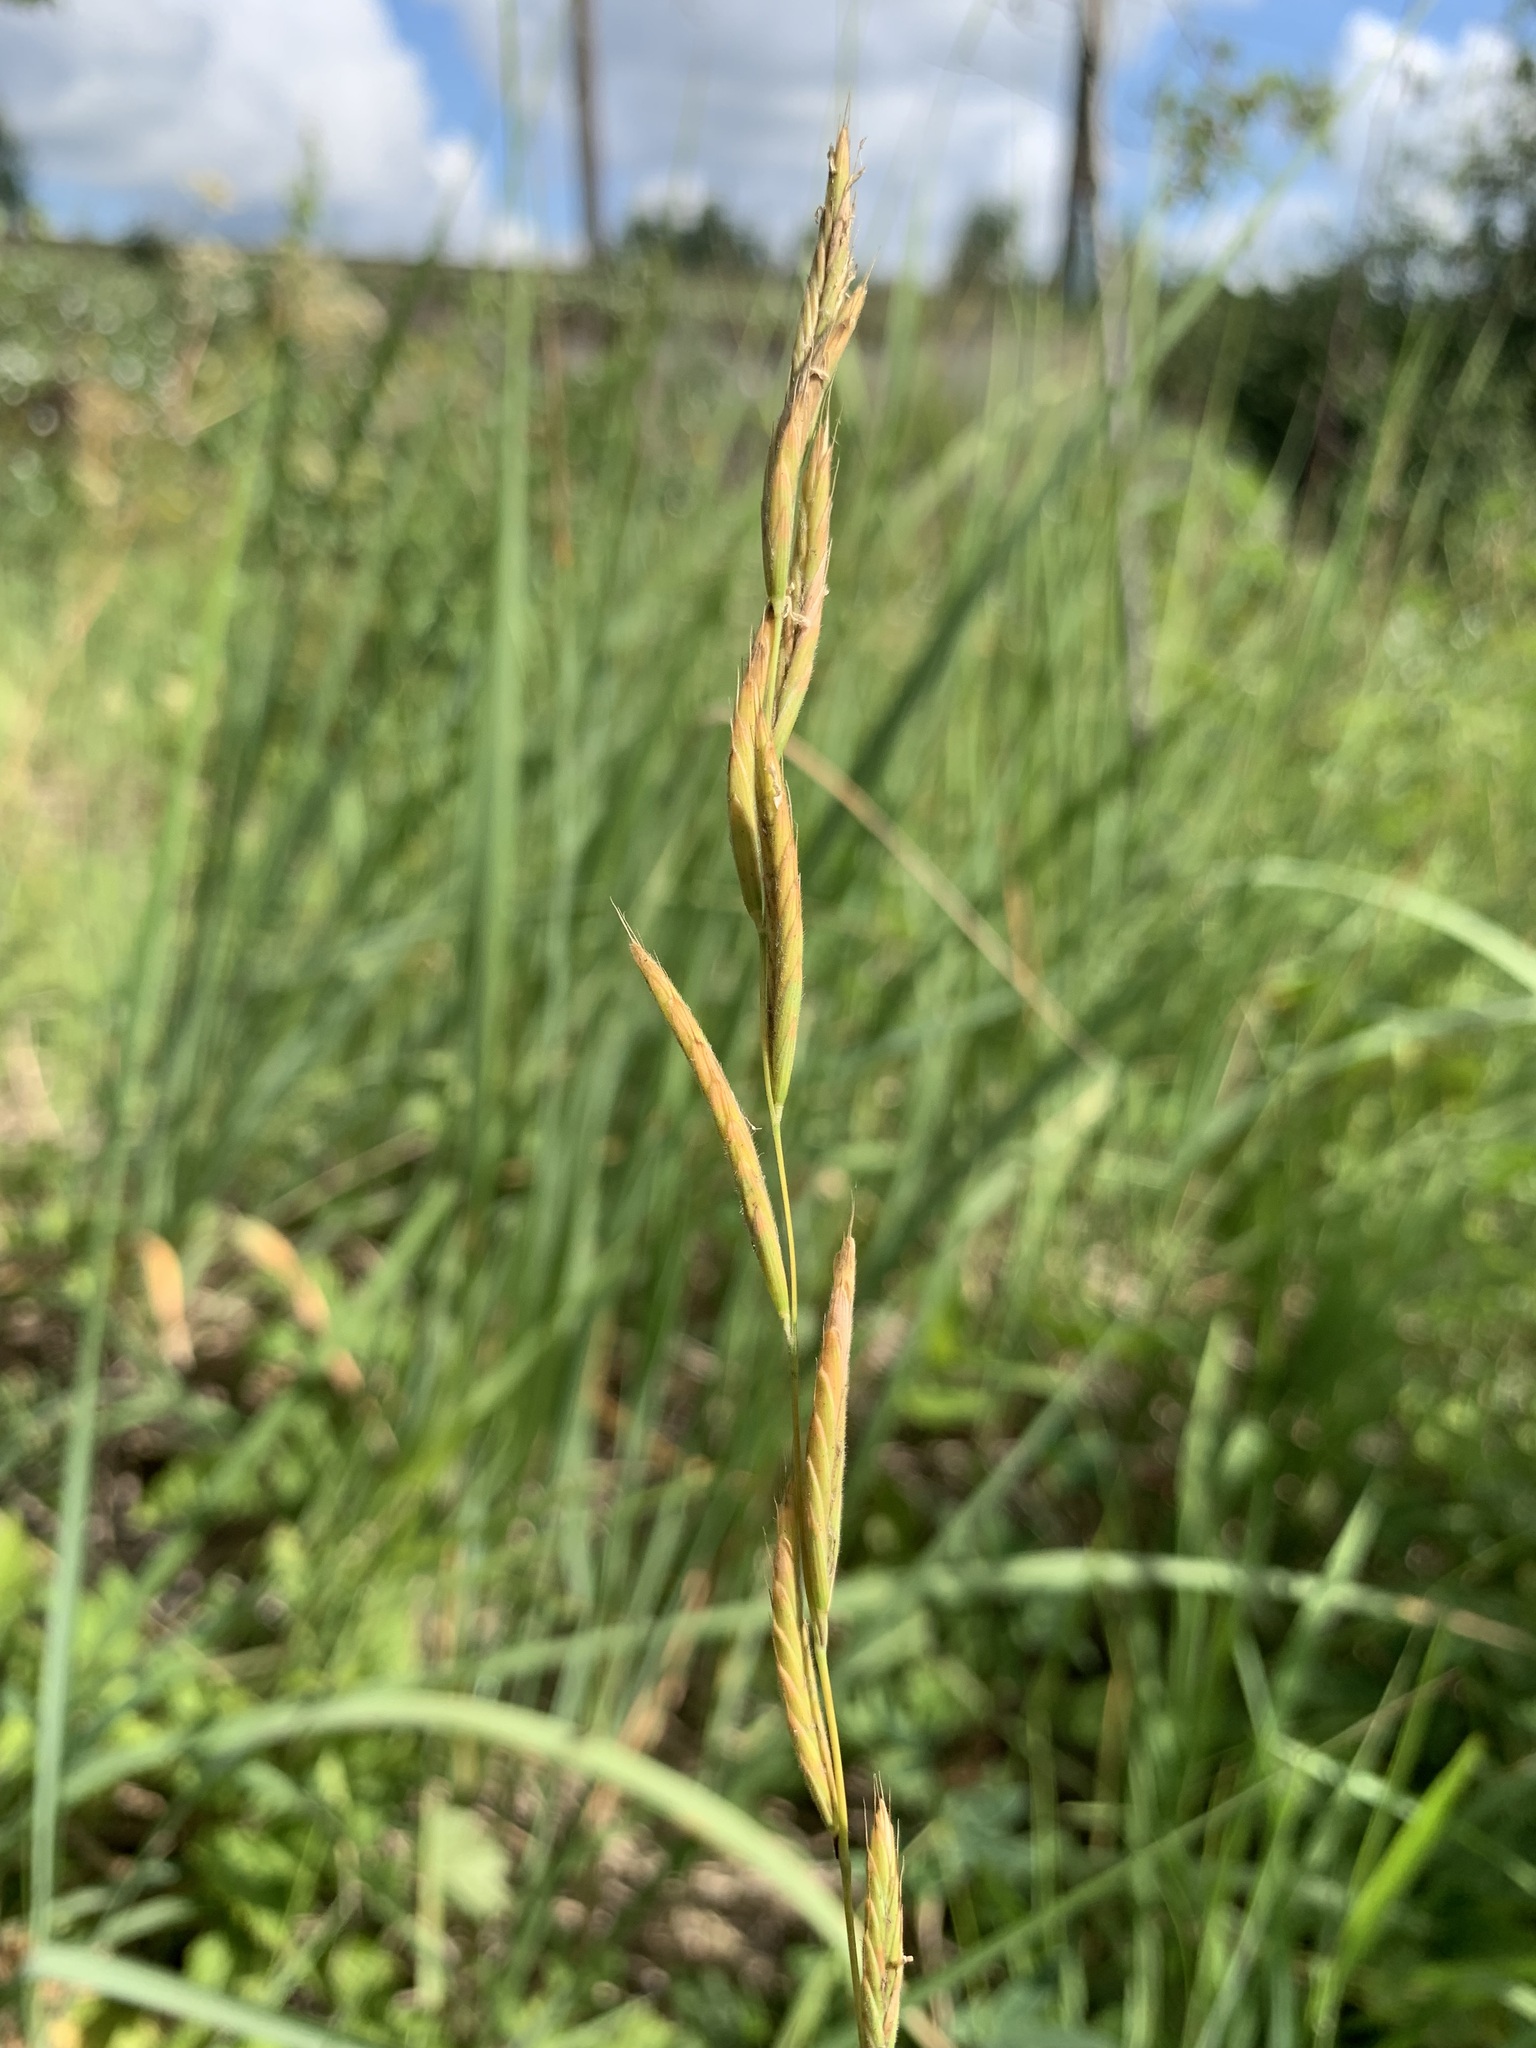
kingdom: Plantae
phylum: Tracheophyta
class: Liliopsida
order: Poales
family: Poaceae
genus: Brachypodium
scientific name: Brachypodium pinnatum
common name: Tor grass
